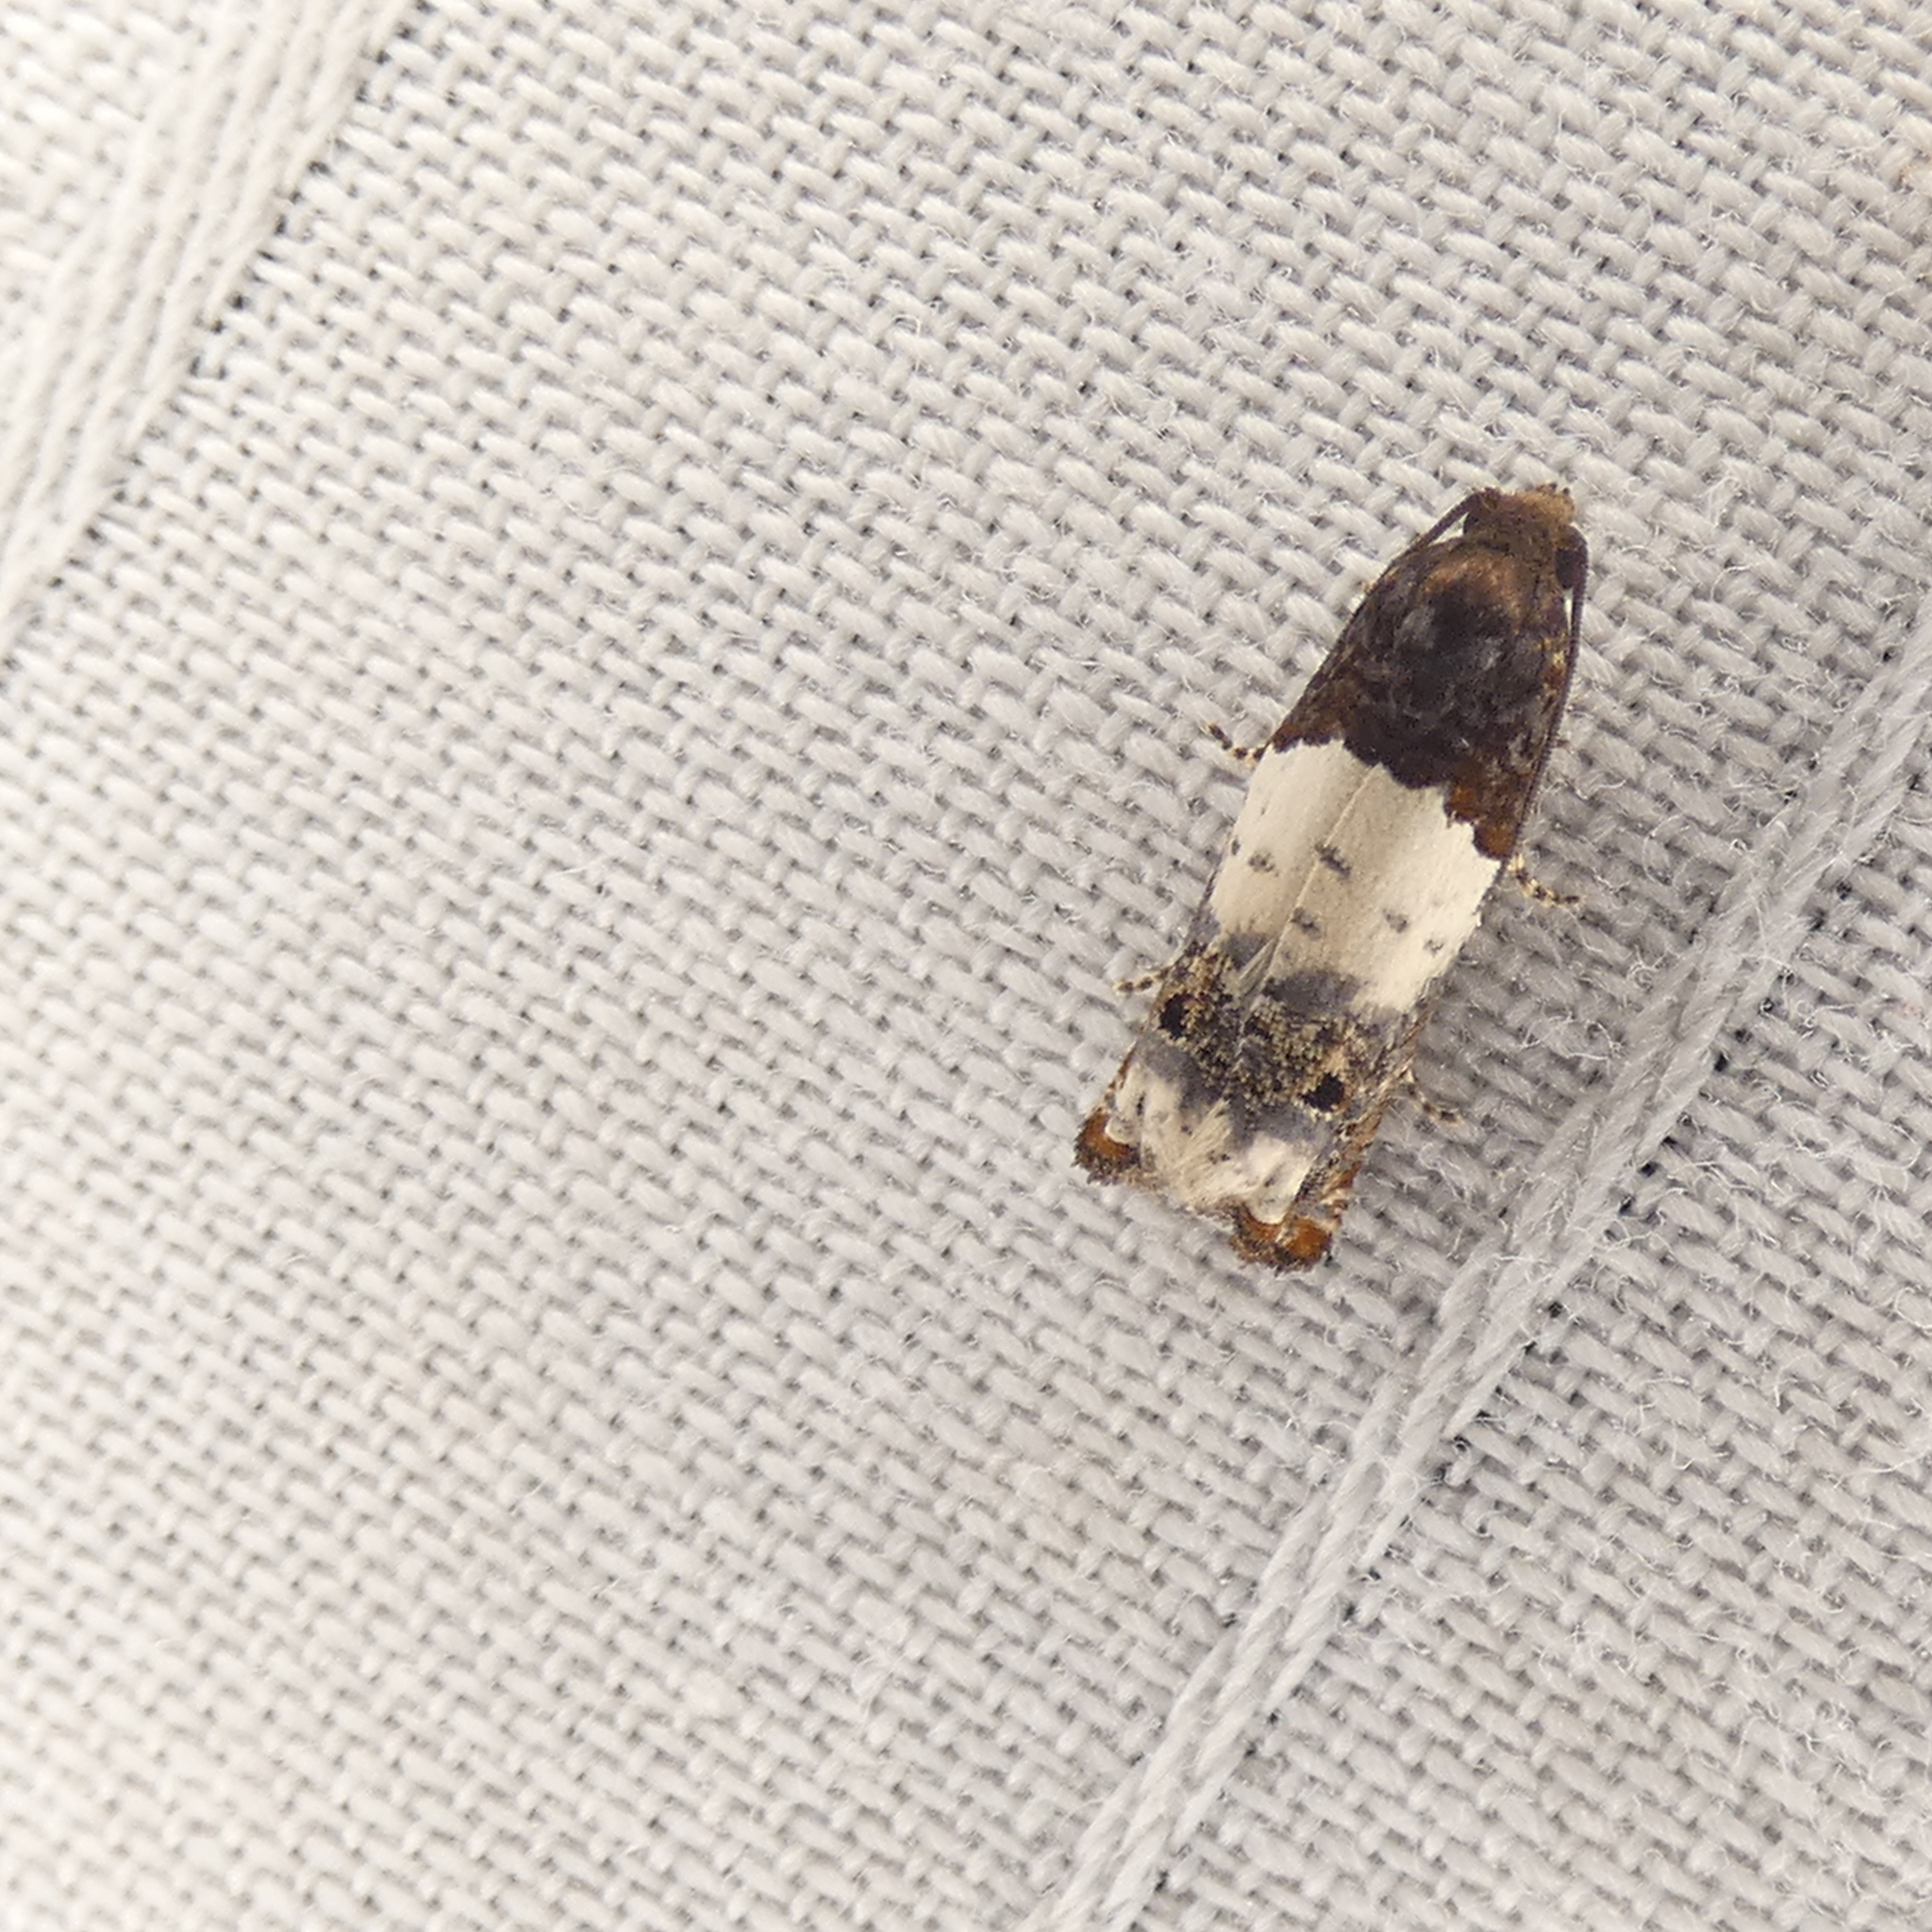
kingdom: Animalia
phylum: Arthropoda
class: Insecta
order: Lepidoptera
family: Tortricidae
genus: Epiblema
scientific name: Epiblema scudderiana
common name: Goldenrod gall moth
